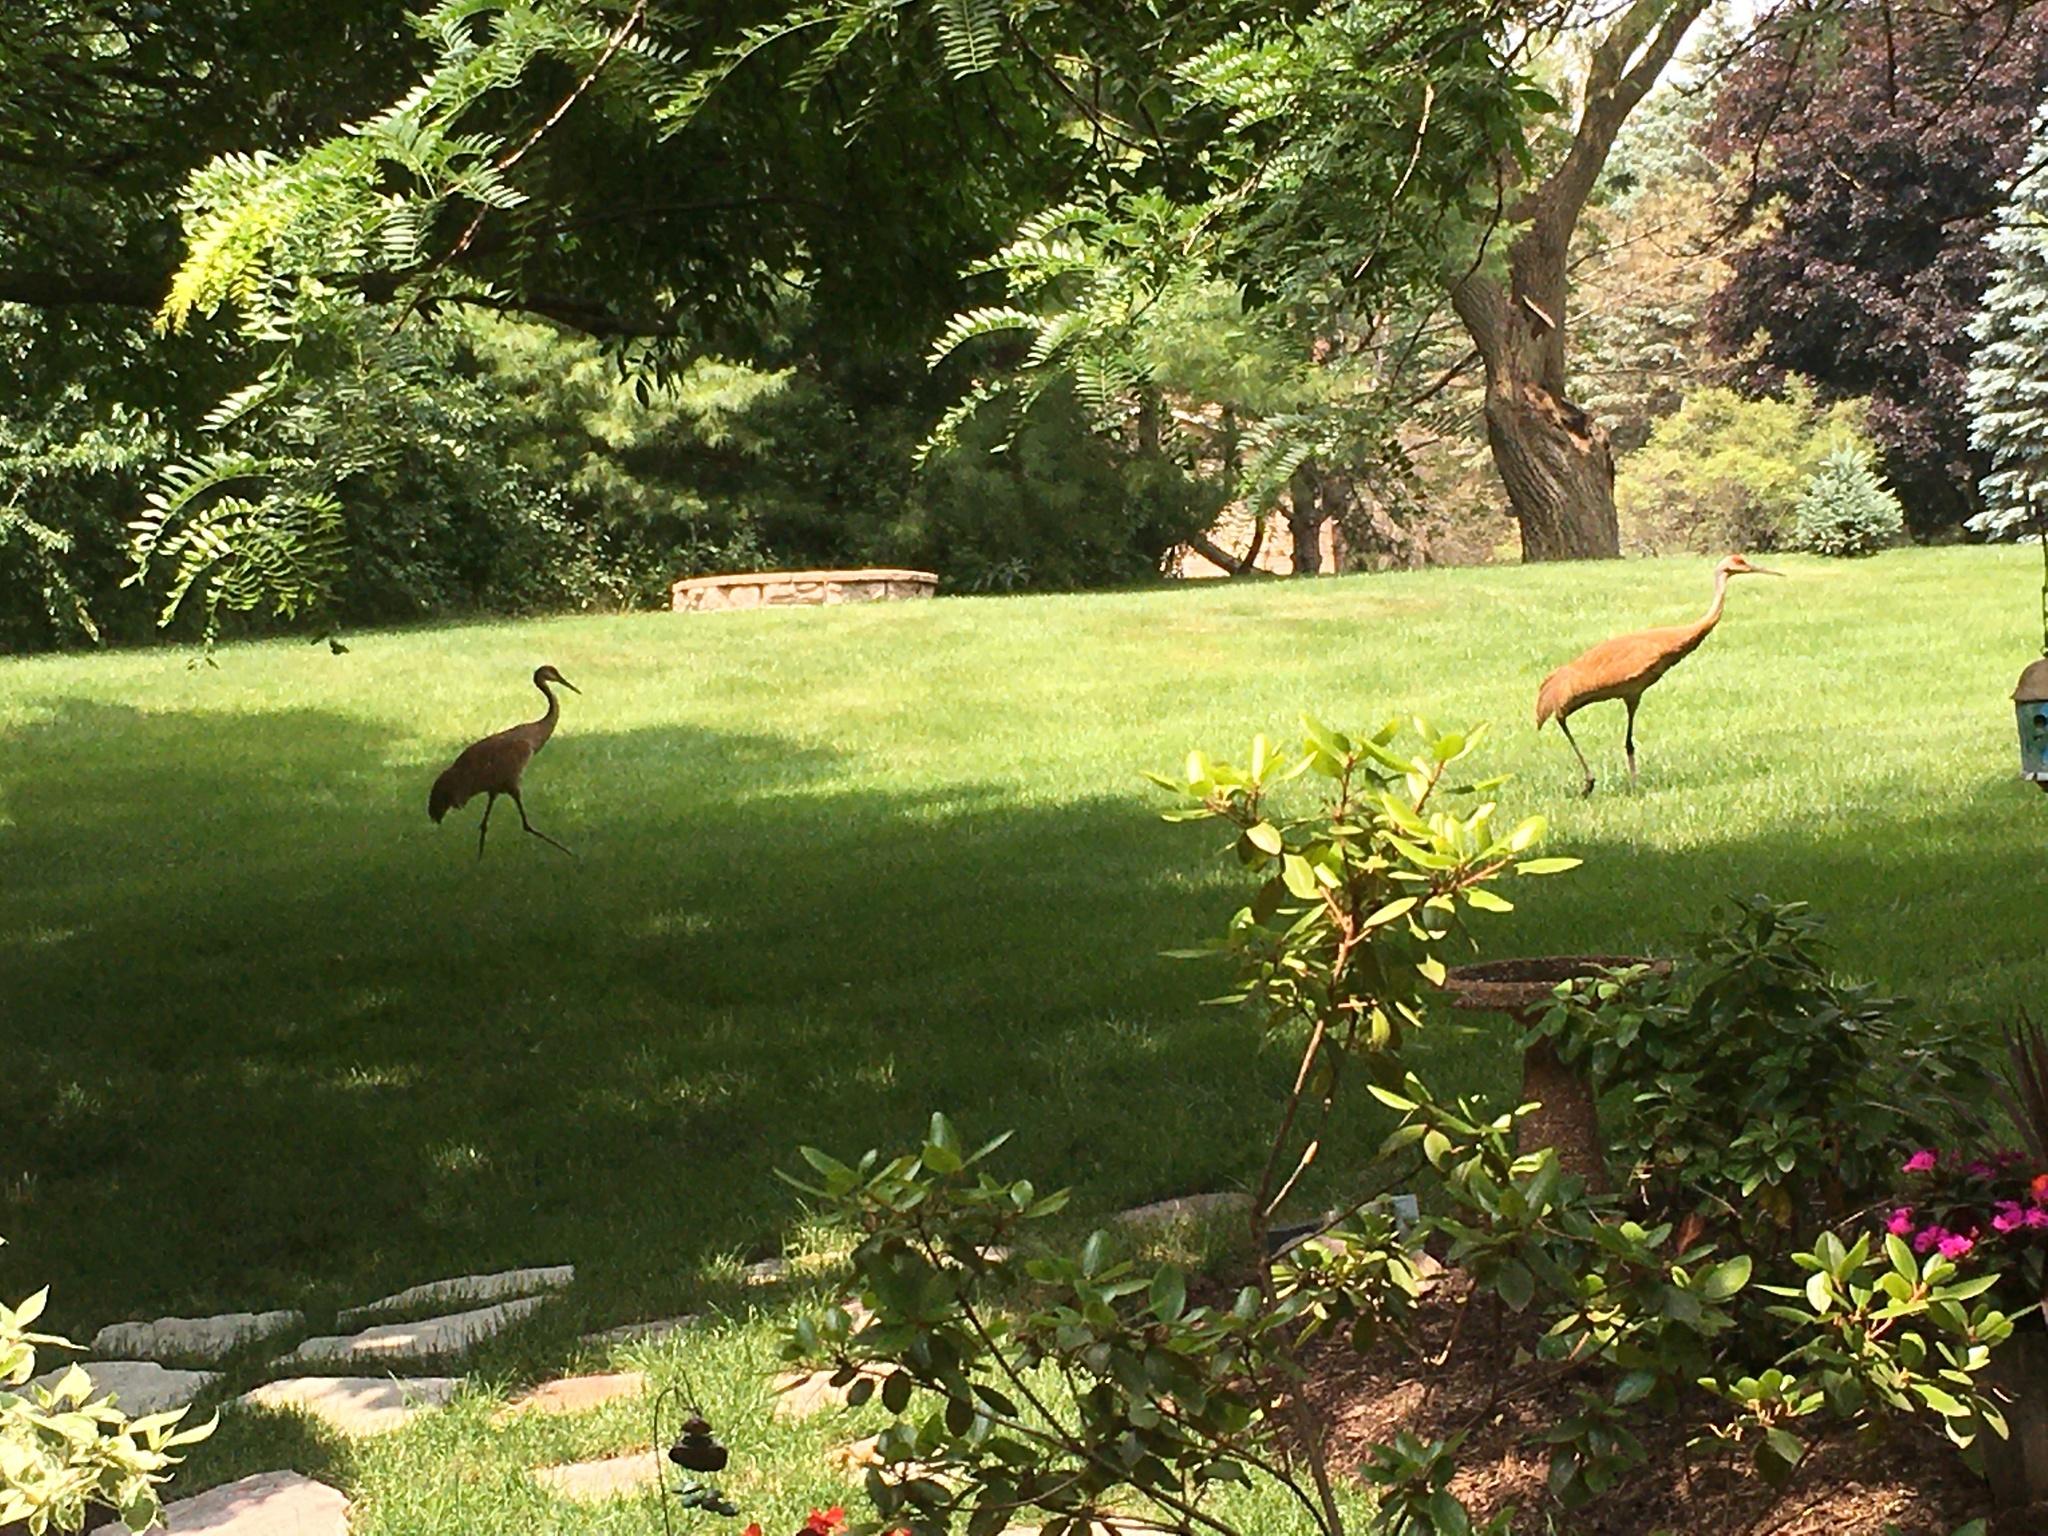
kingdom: Animalia
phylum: Chordata
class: Aves
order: Gruiformes
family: Gruidae
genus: Grus
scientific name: Grus canadensis
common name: Sandhill crane
